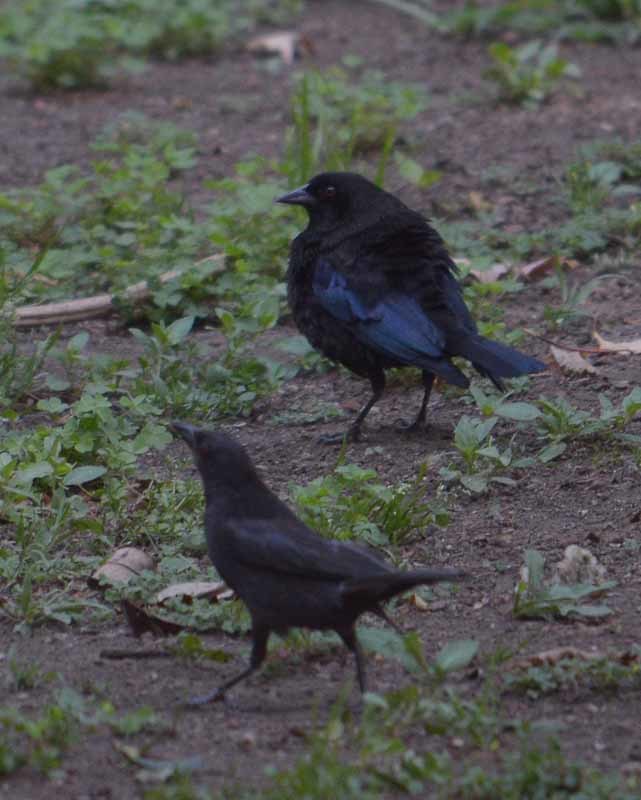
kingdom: Animalia
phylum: Chordata
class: Aves
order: Passeriformes
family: Icteridae
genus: Molothrus
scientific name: Molothrus aeneus
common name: Bronzed cowbird
